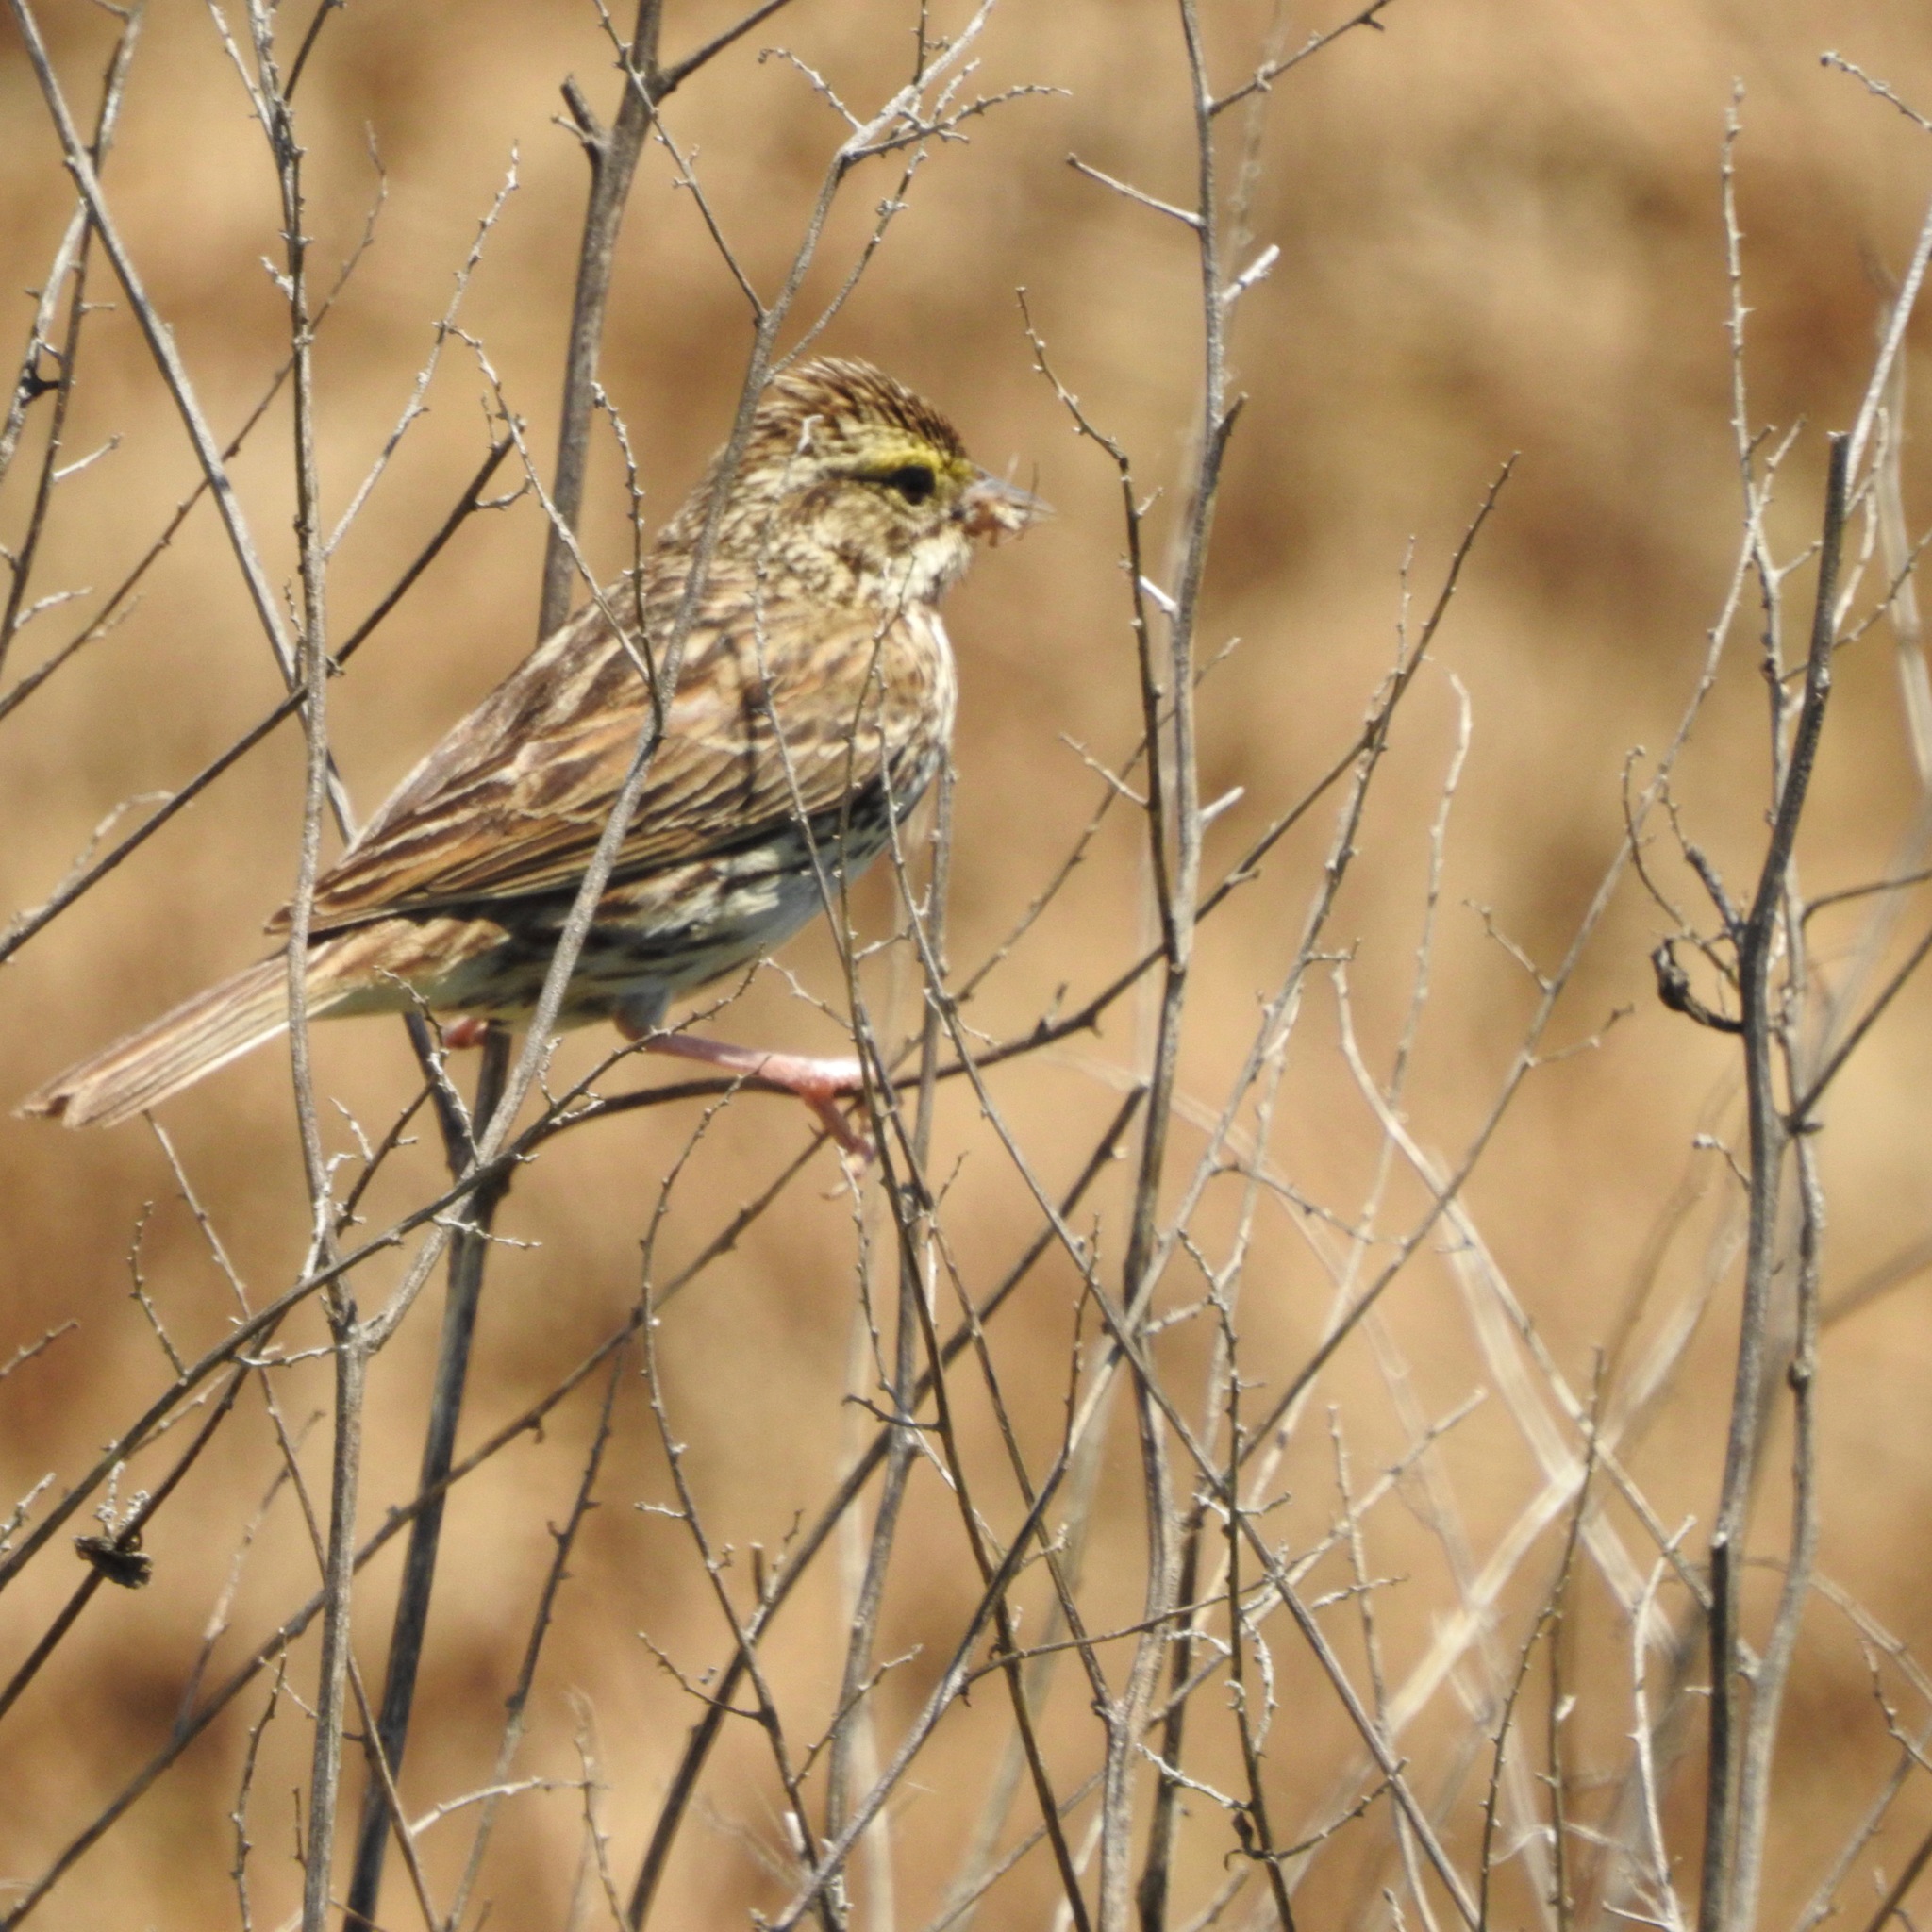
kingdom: Animalia
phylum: Chordata
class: Aves
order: Passeriformes
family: Passerellidae
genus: Passerculus
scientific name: Passerculus sandwichensis
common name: Savannah sparrow
